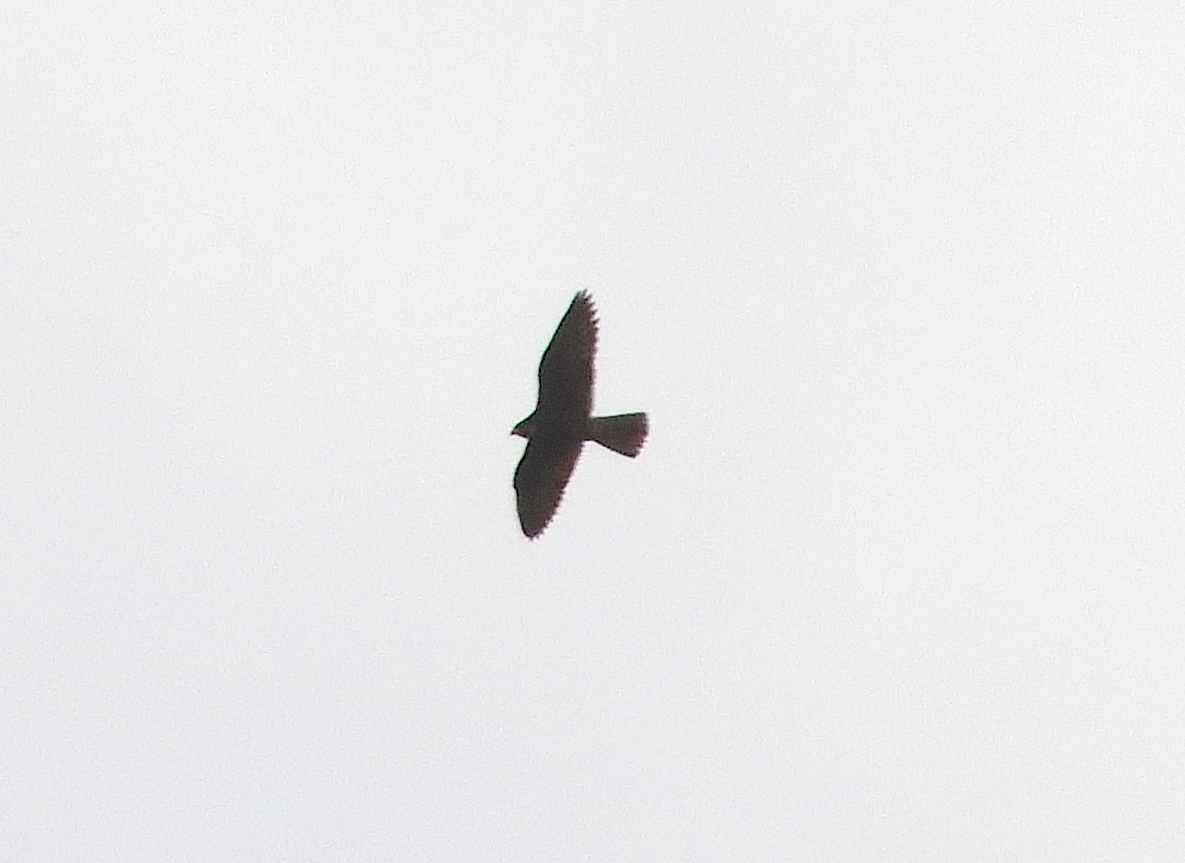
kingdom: Animalia
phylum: Chordata
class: Aves
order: Falconiformes
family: Falconidae
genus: Falco
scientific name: Falco peregrinus
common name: Peregrine falcon
